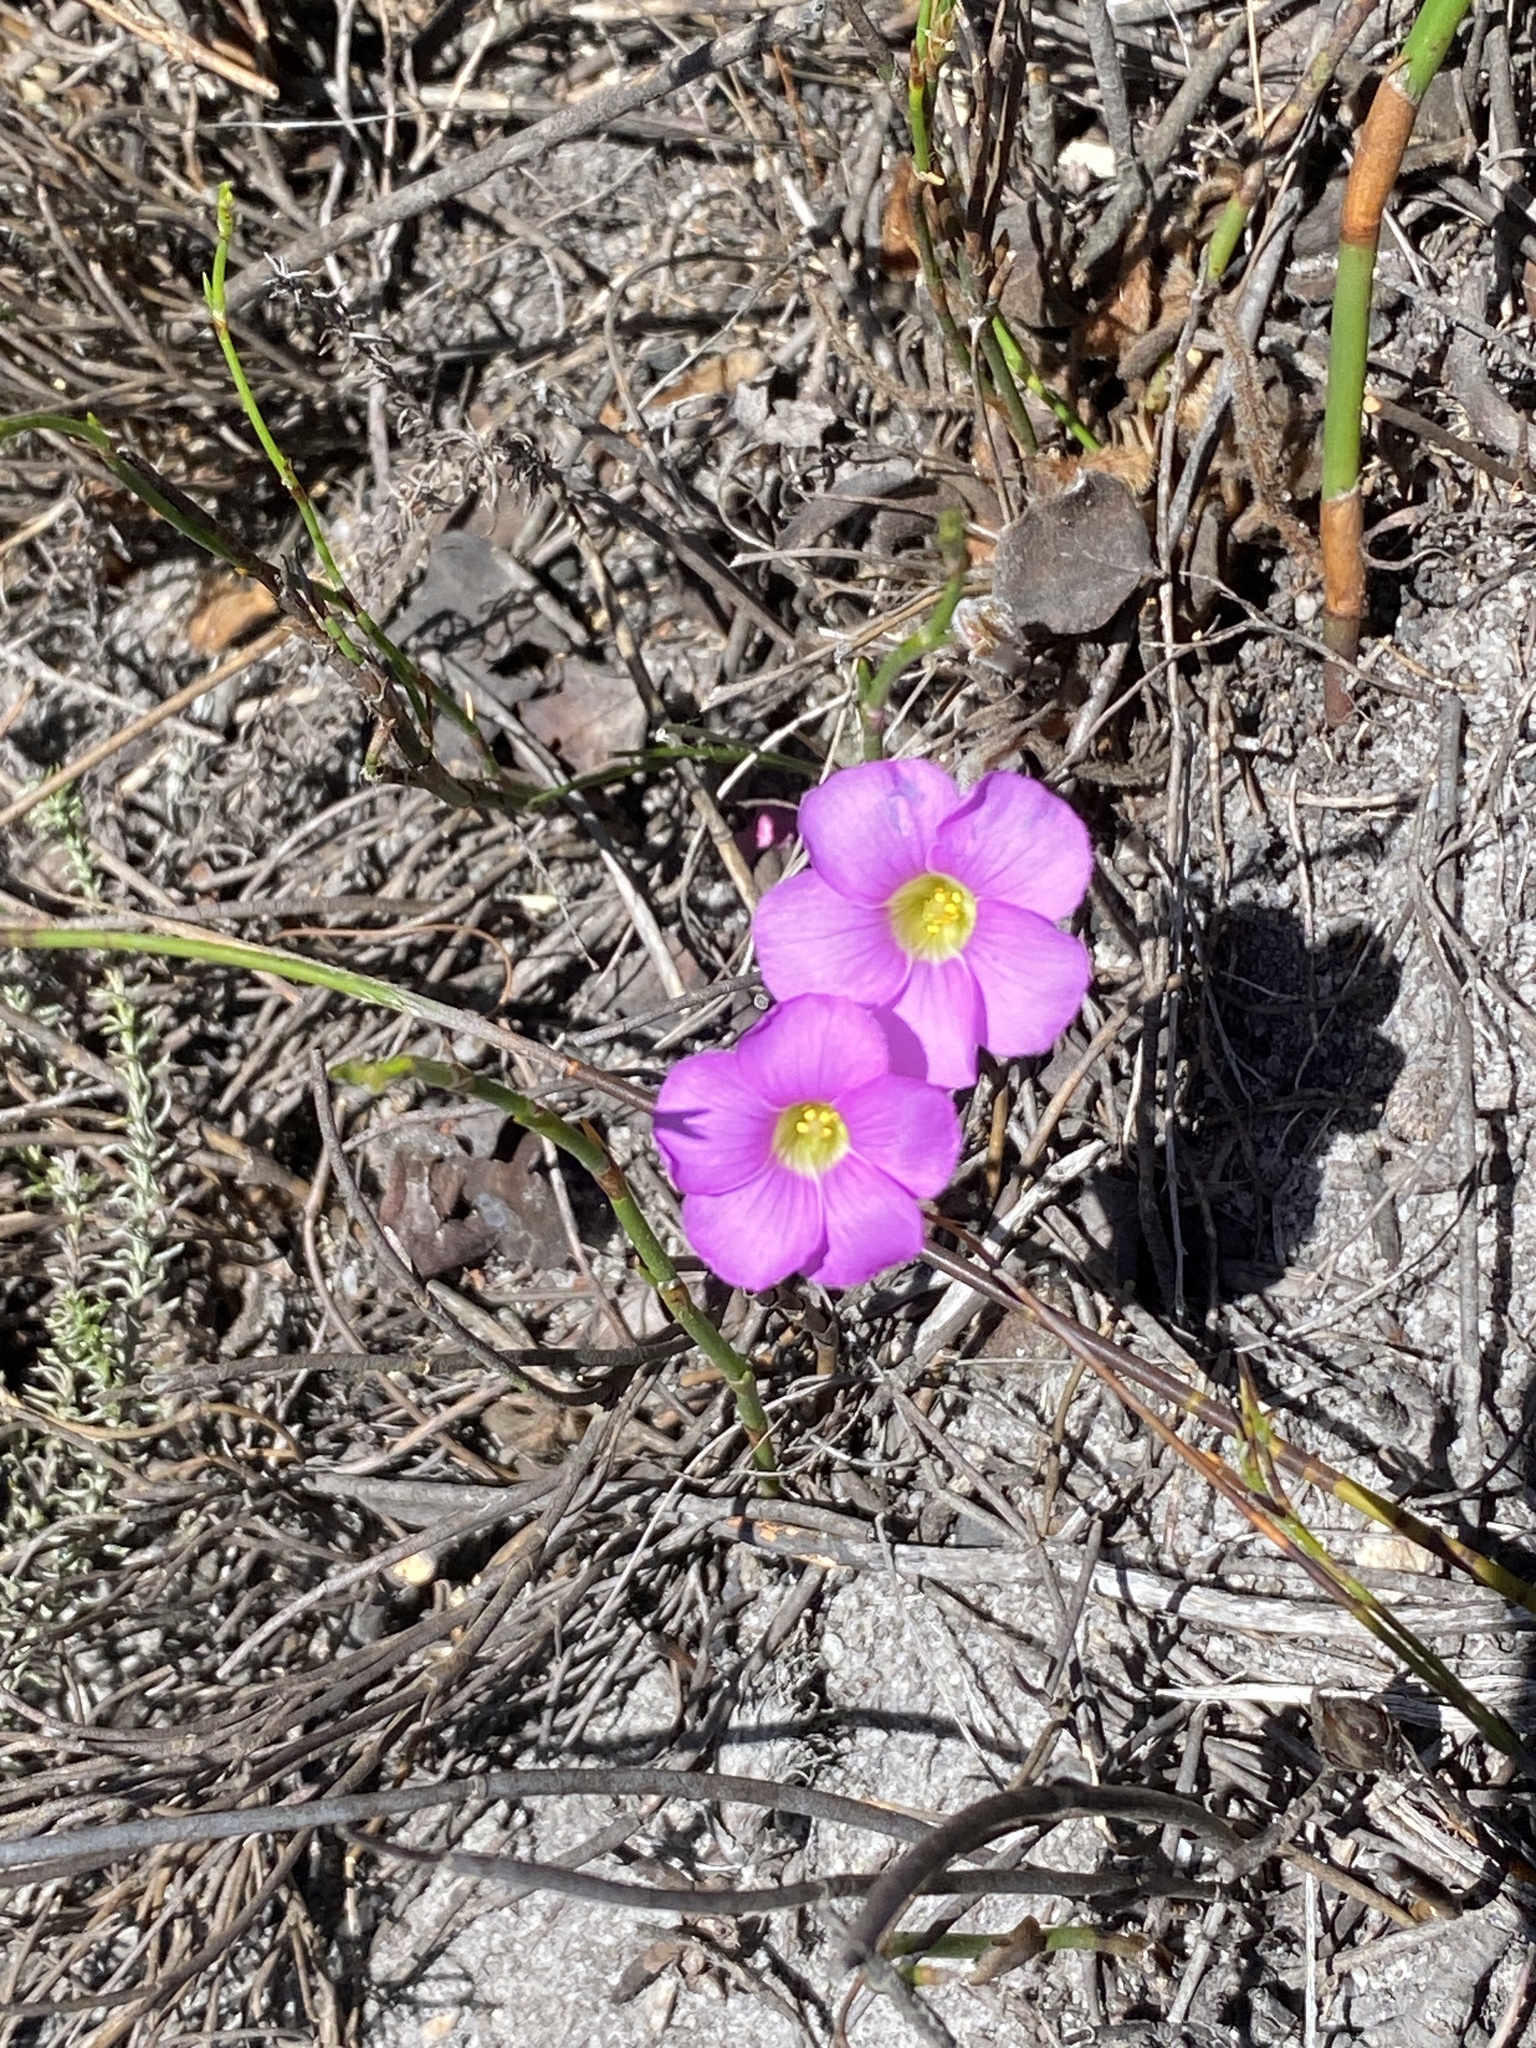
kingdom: Plantae
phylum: Tracheophyta
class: Magnoliopsida
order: Oxalidales
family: Oxalidaceae
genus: Oxalis
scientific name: Oxalis truncatula
